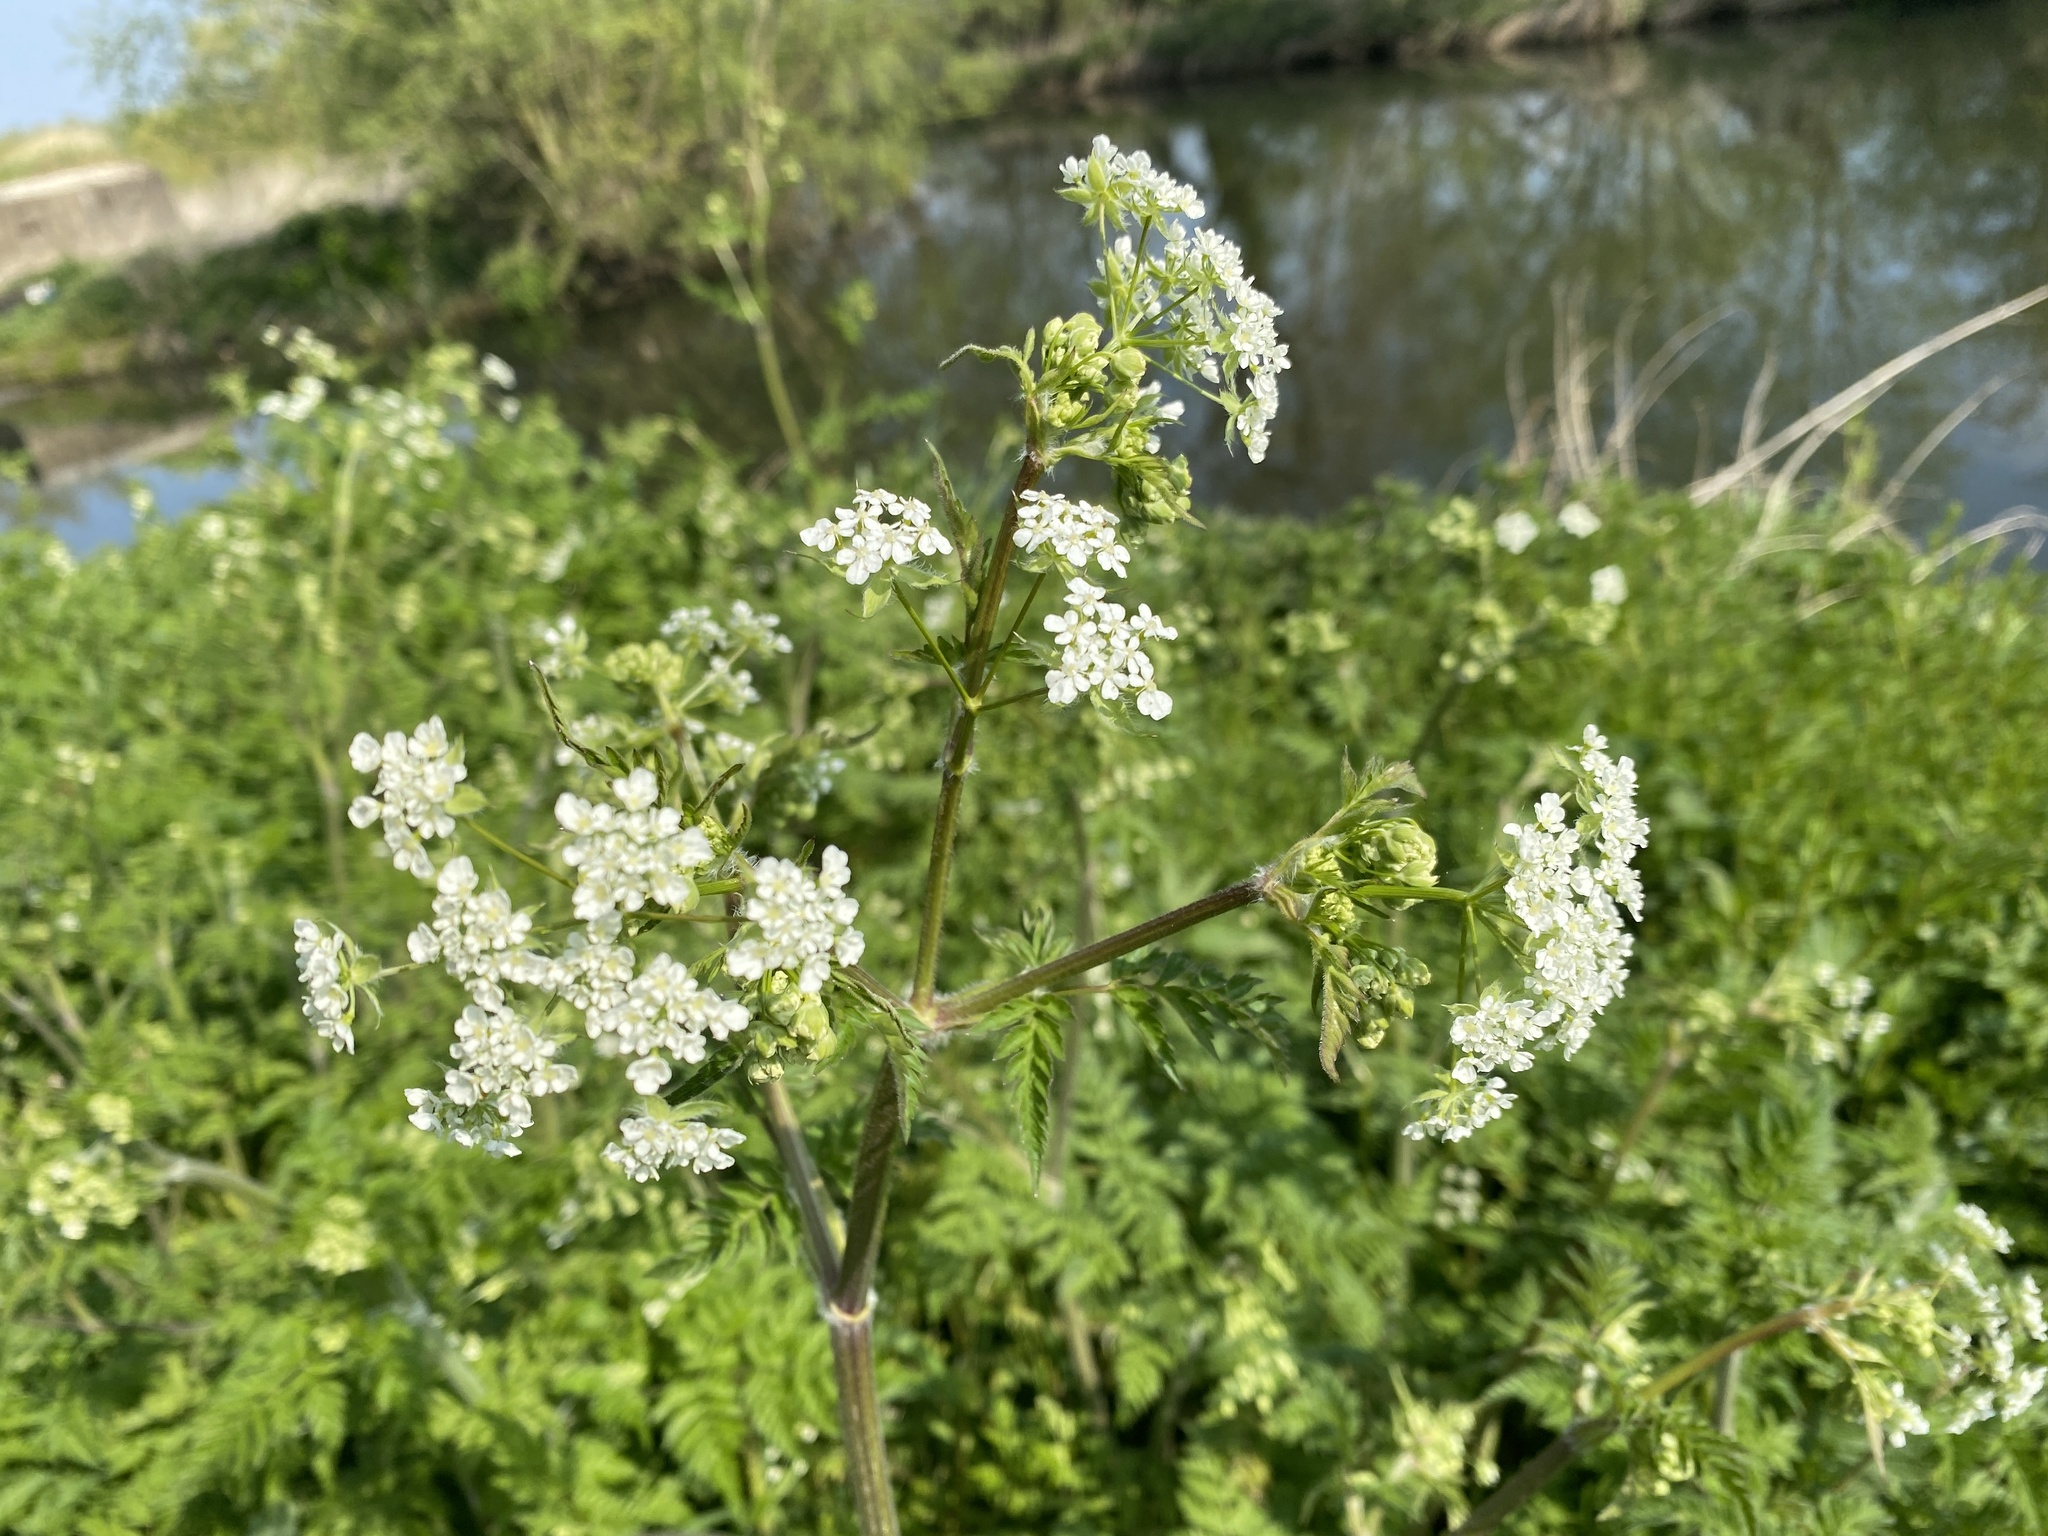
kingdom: Plantae
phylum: Tracheophyta
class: Magnoliopsida
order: Apiales
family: Apiaceae
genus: Anthriscus
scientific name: Anthriscus sylvestris
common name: Cow parsley
